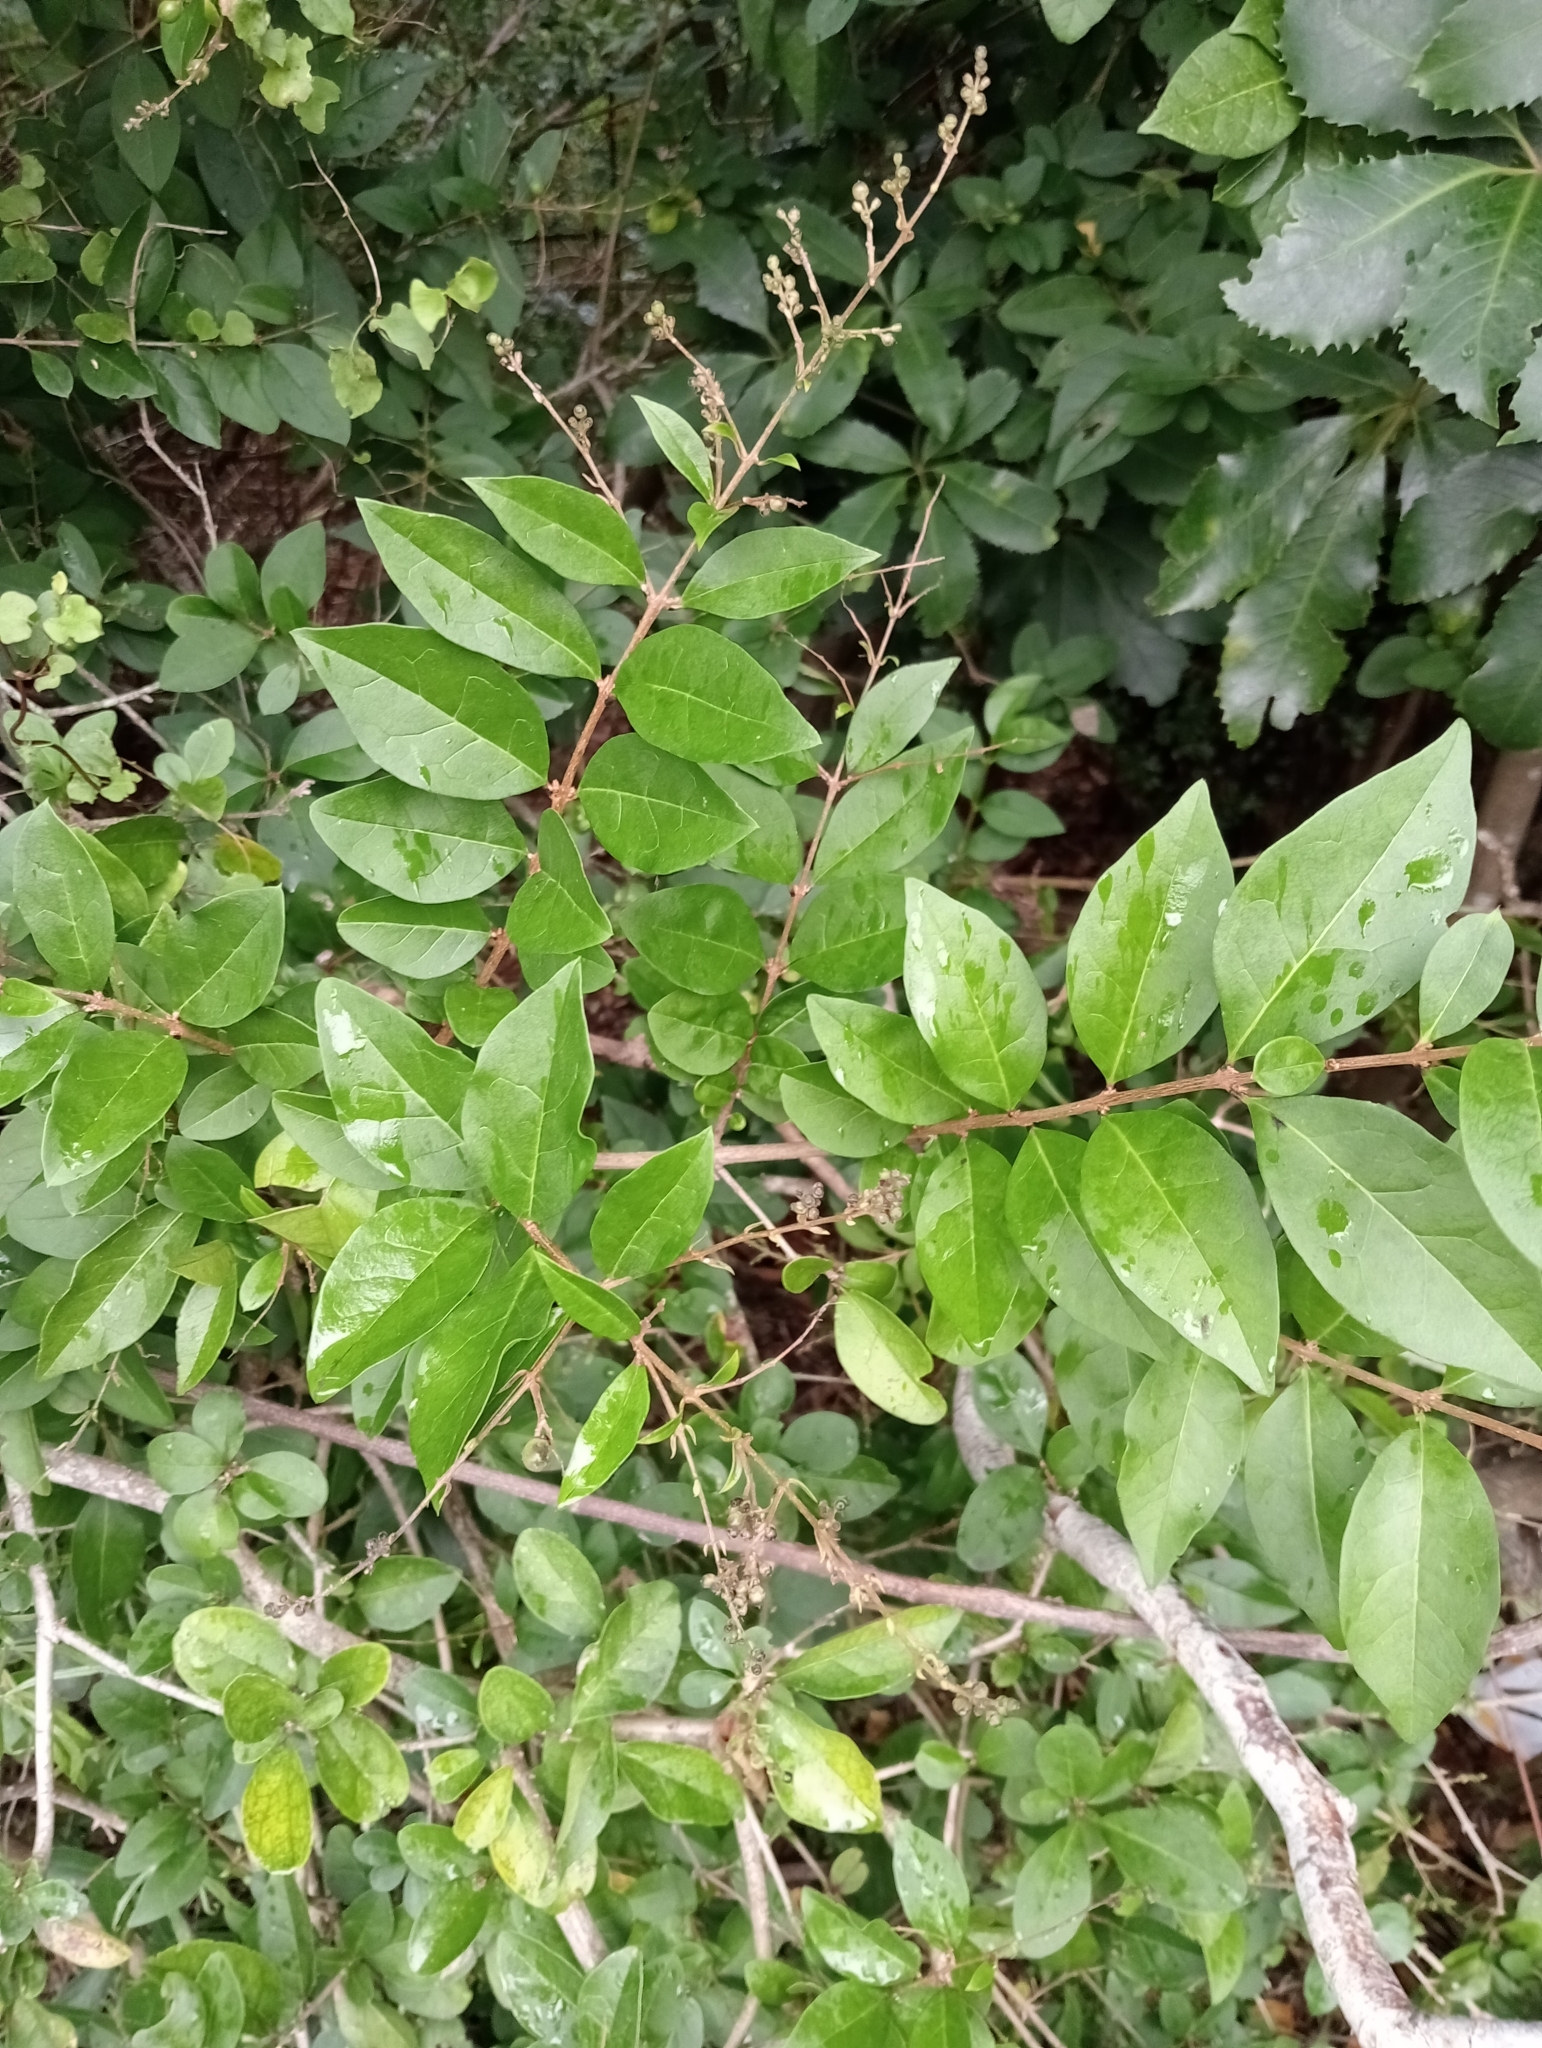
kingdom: Plantae
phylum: Tracheophyta
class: Magnoliopsida
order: Lamiales
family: Oleaceae
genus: Ligustrum
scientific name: Ligustrum ovalifolium
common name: California privet
